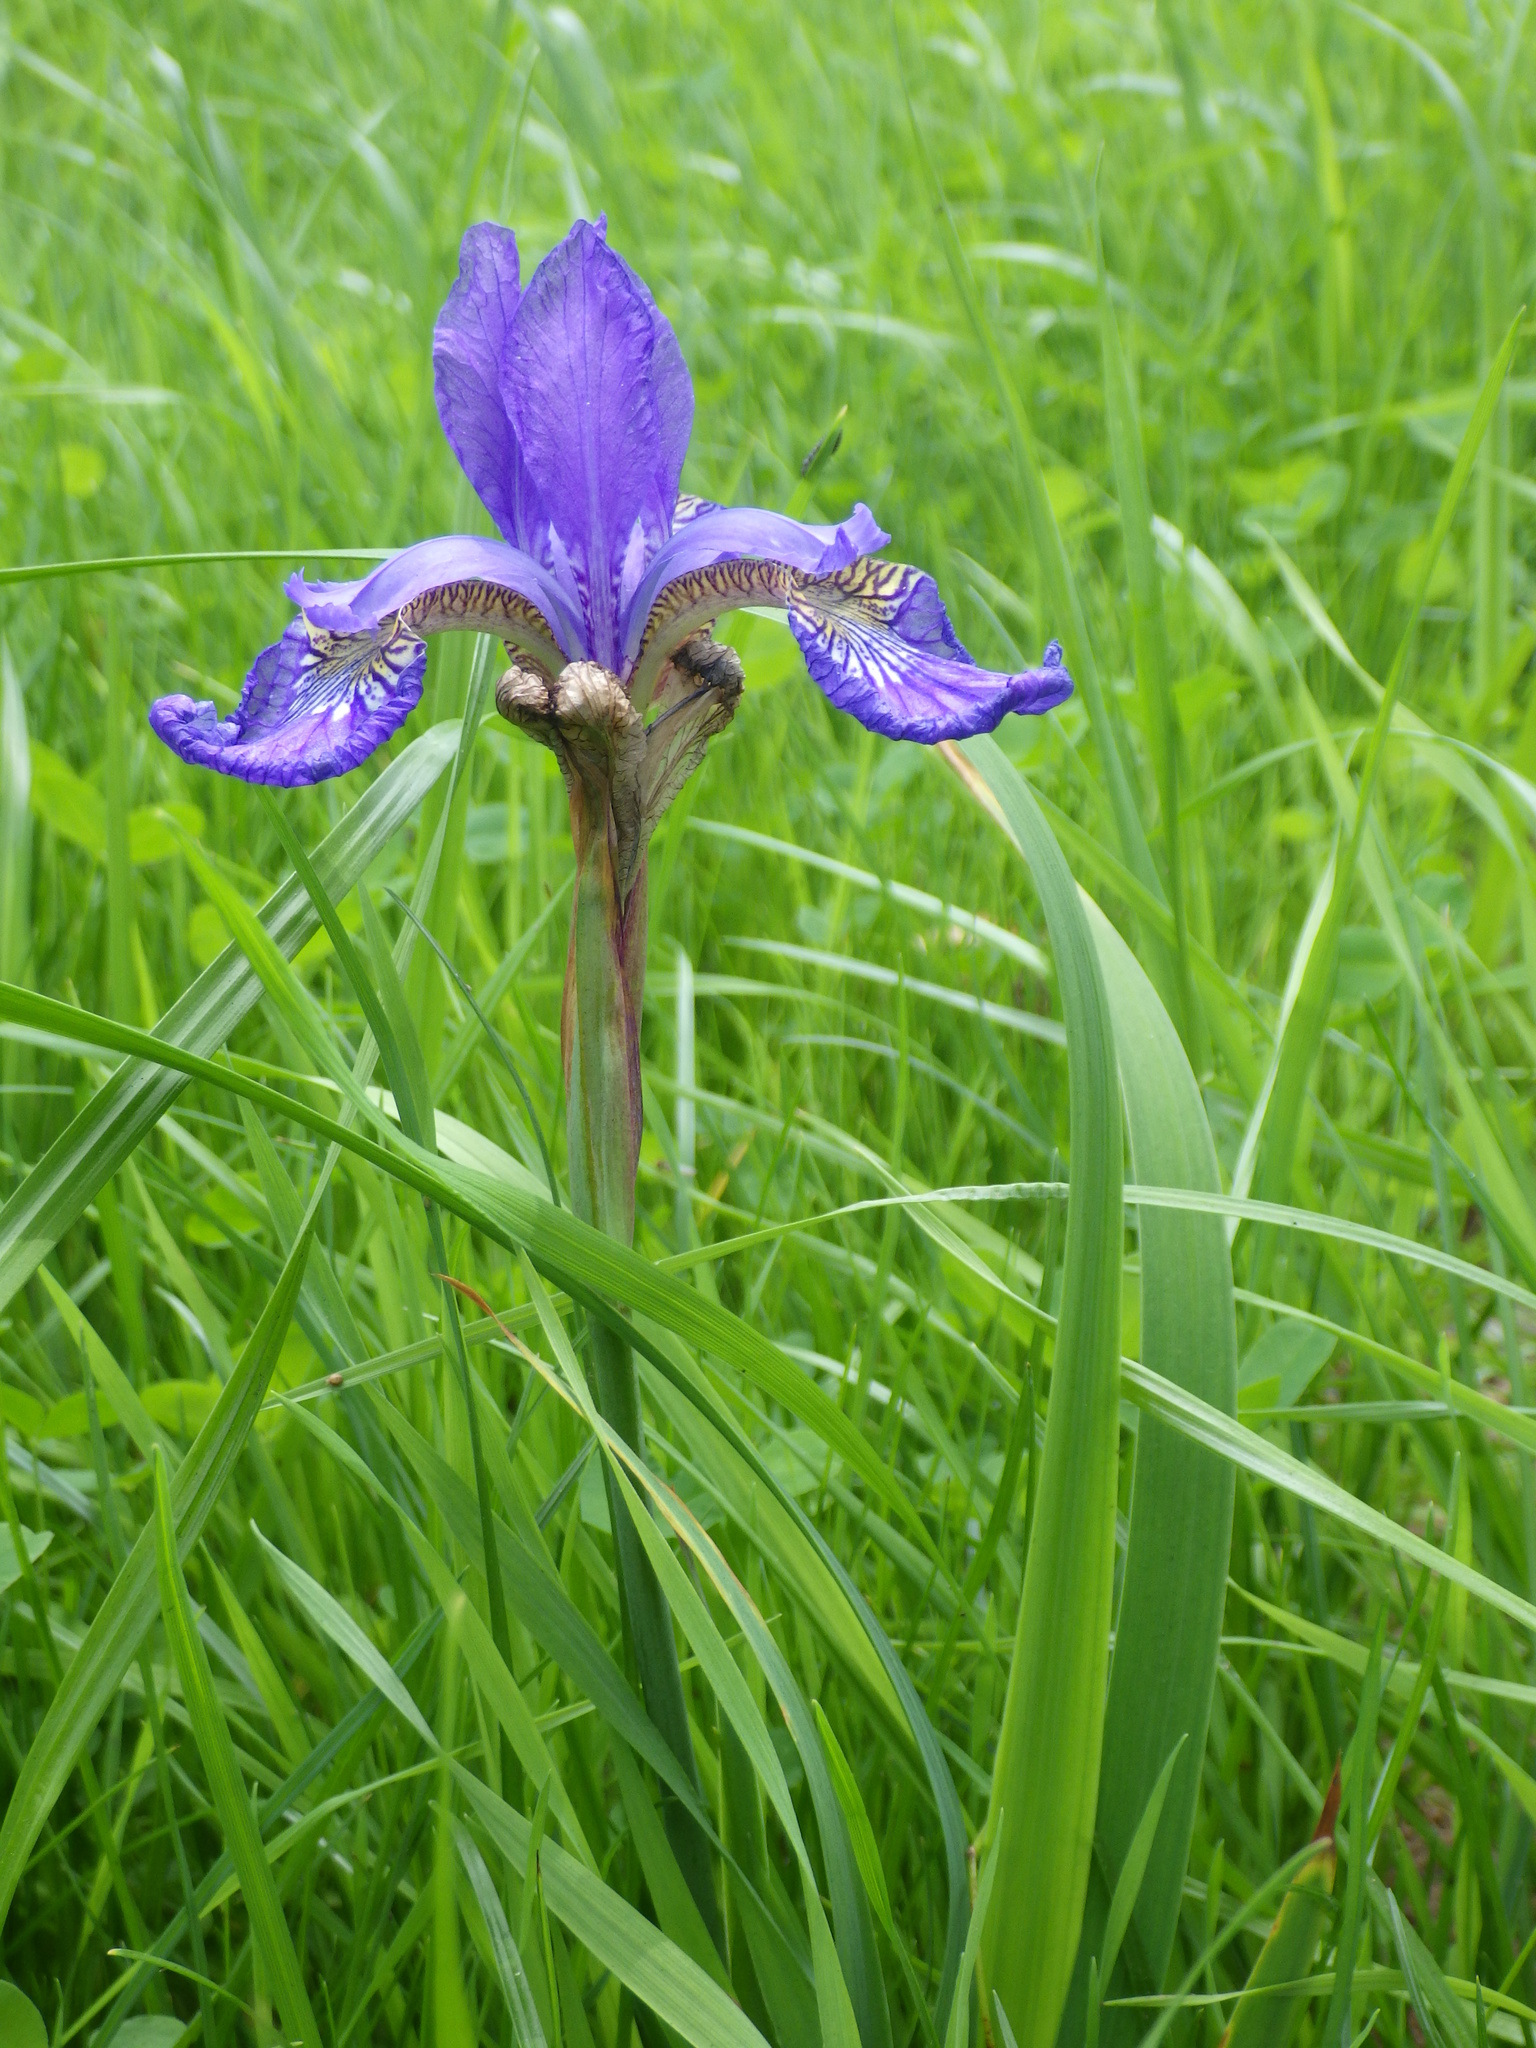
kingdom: Plantae
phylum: Tracheophyta
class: Liliopsida
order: Asparagales
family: Iridaceae
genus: Iris
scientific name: Iris versicolor
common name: Purple iris
